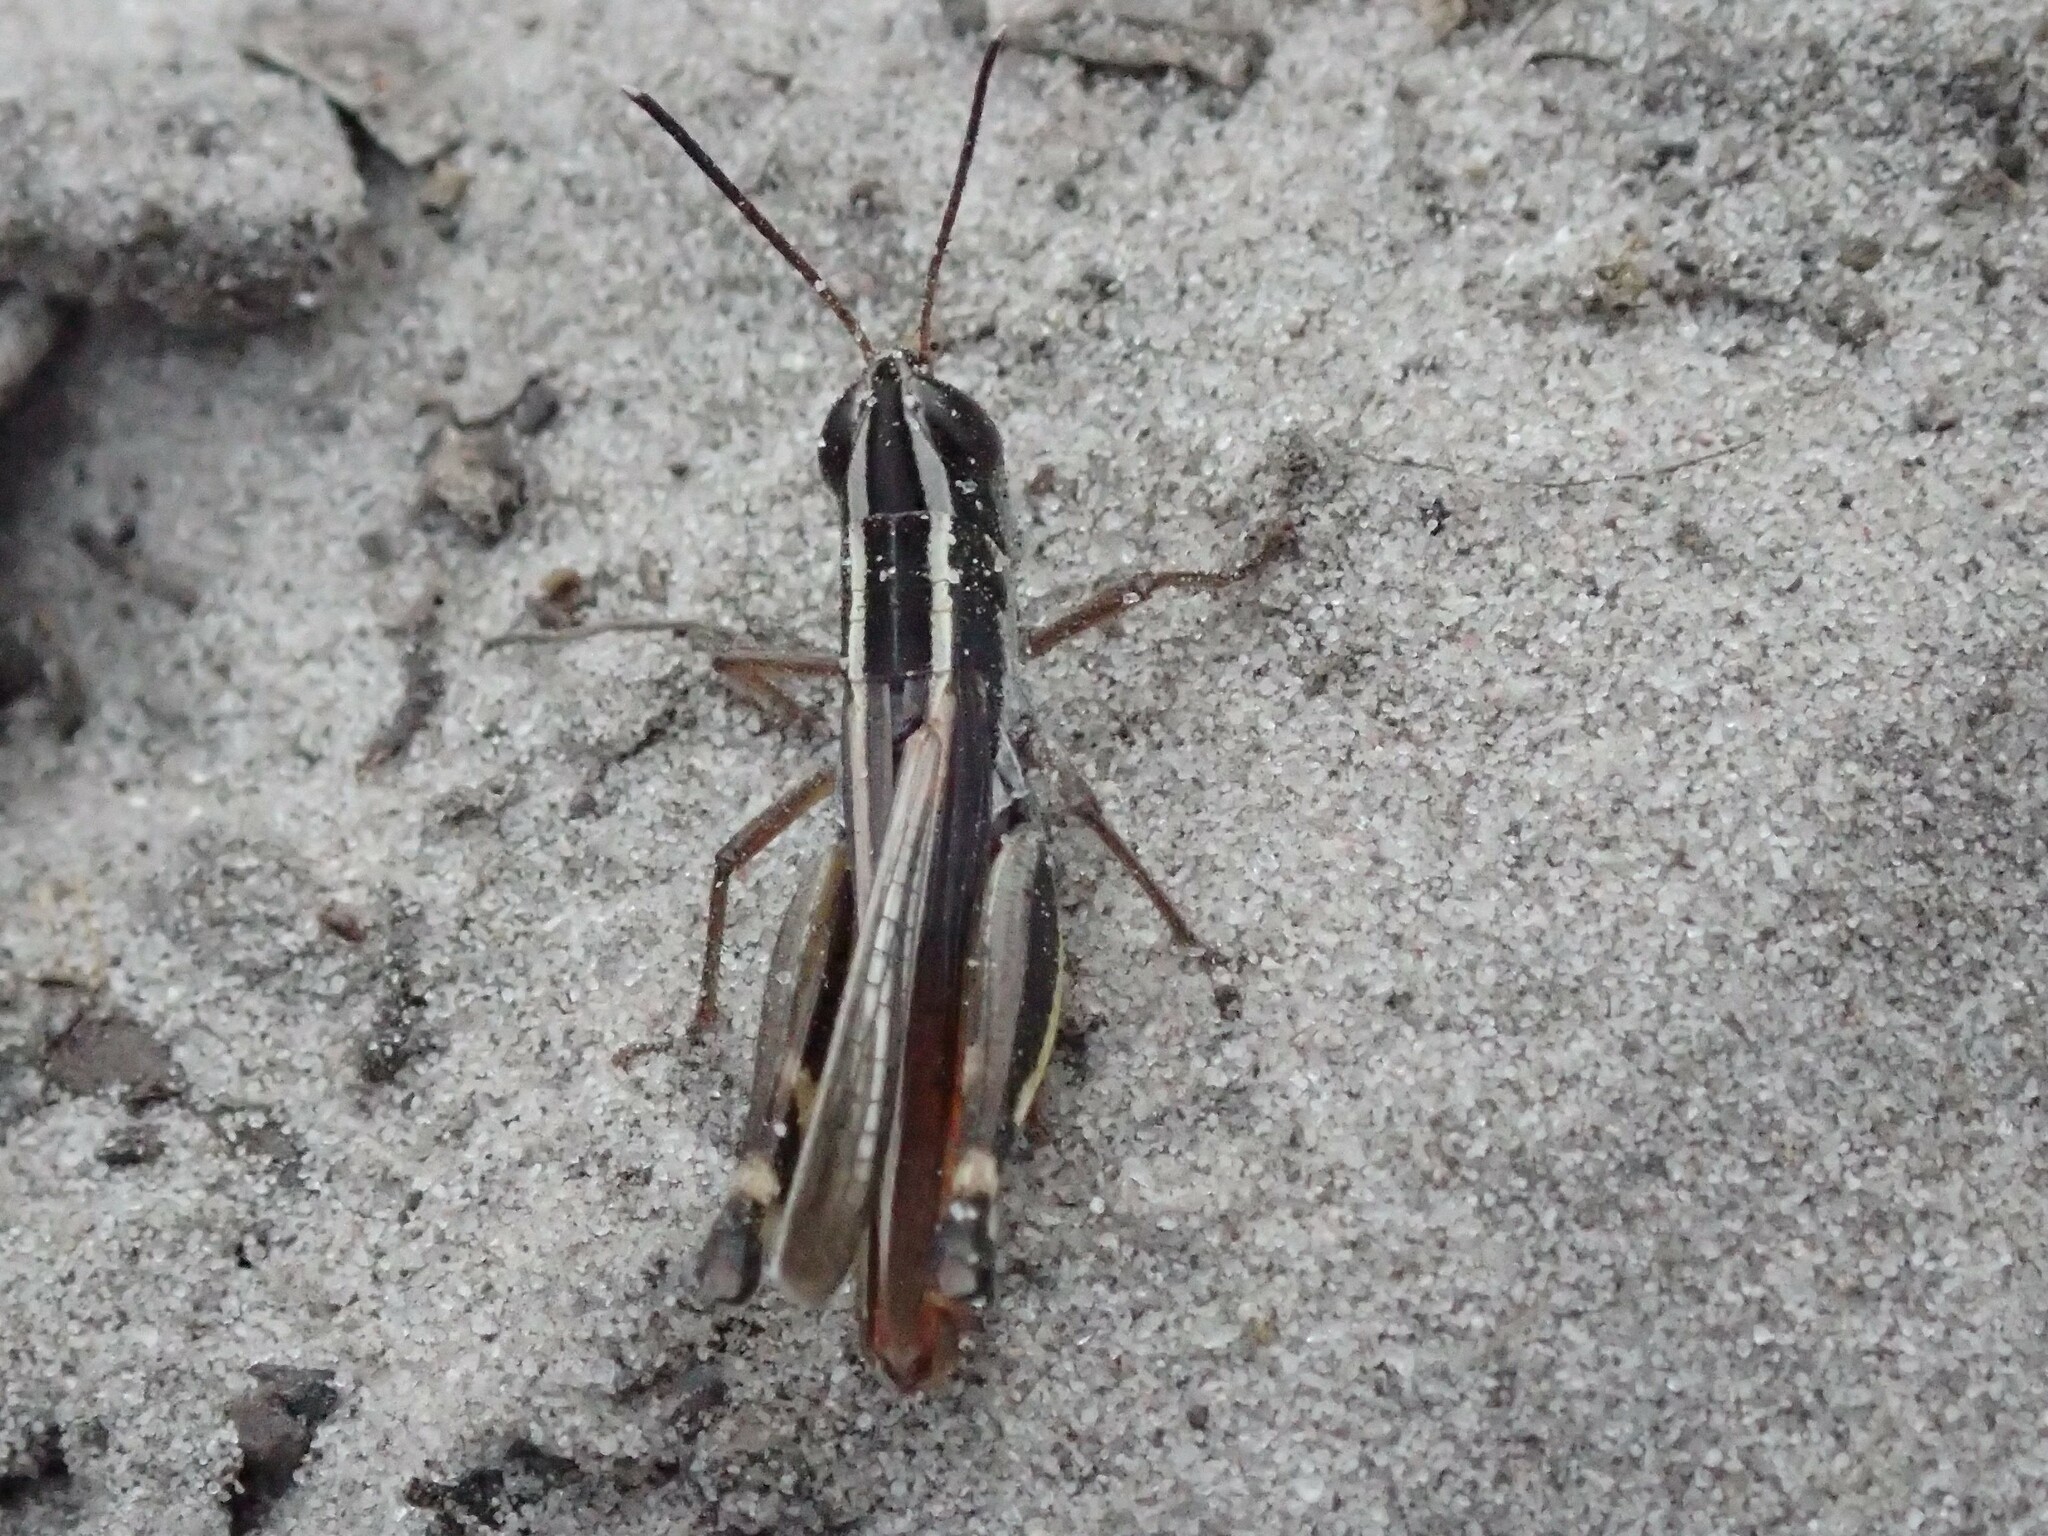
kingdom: Animalia
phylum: Arthropoda
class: Insecta
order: Orthoptera
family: Acrididae
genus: Macrotona
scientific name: Macrotona australis
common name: Common macrotona
